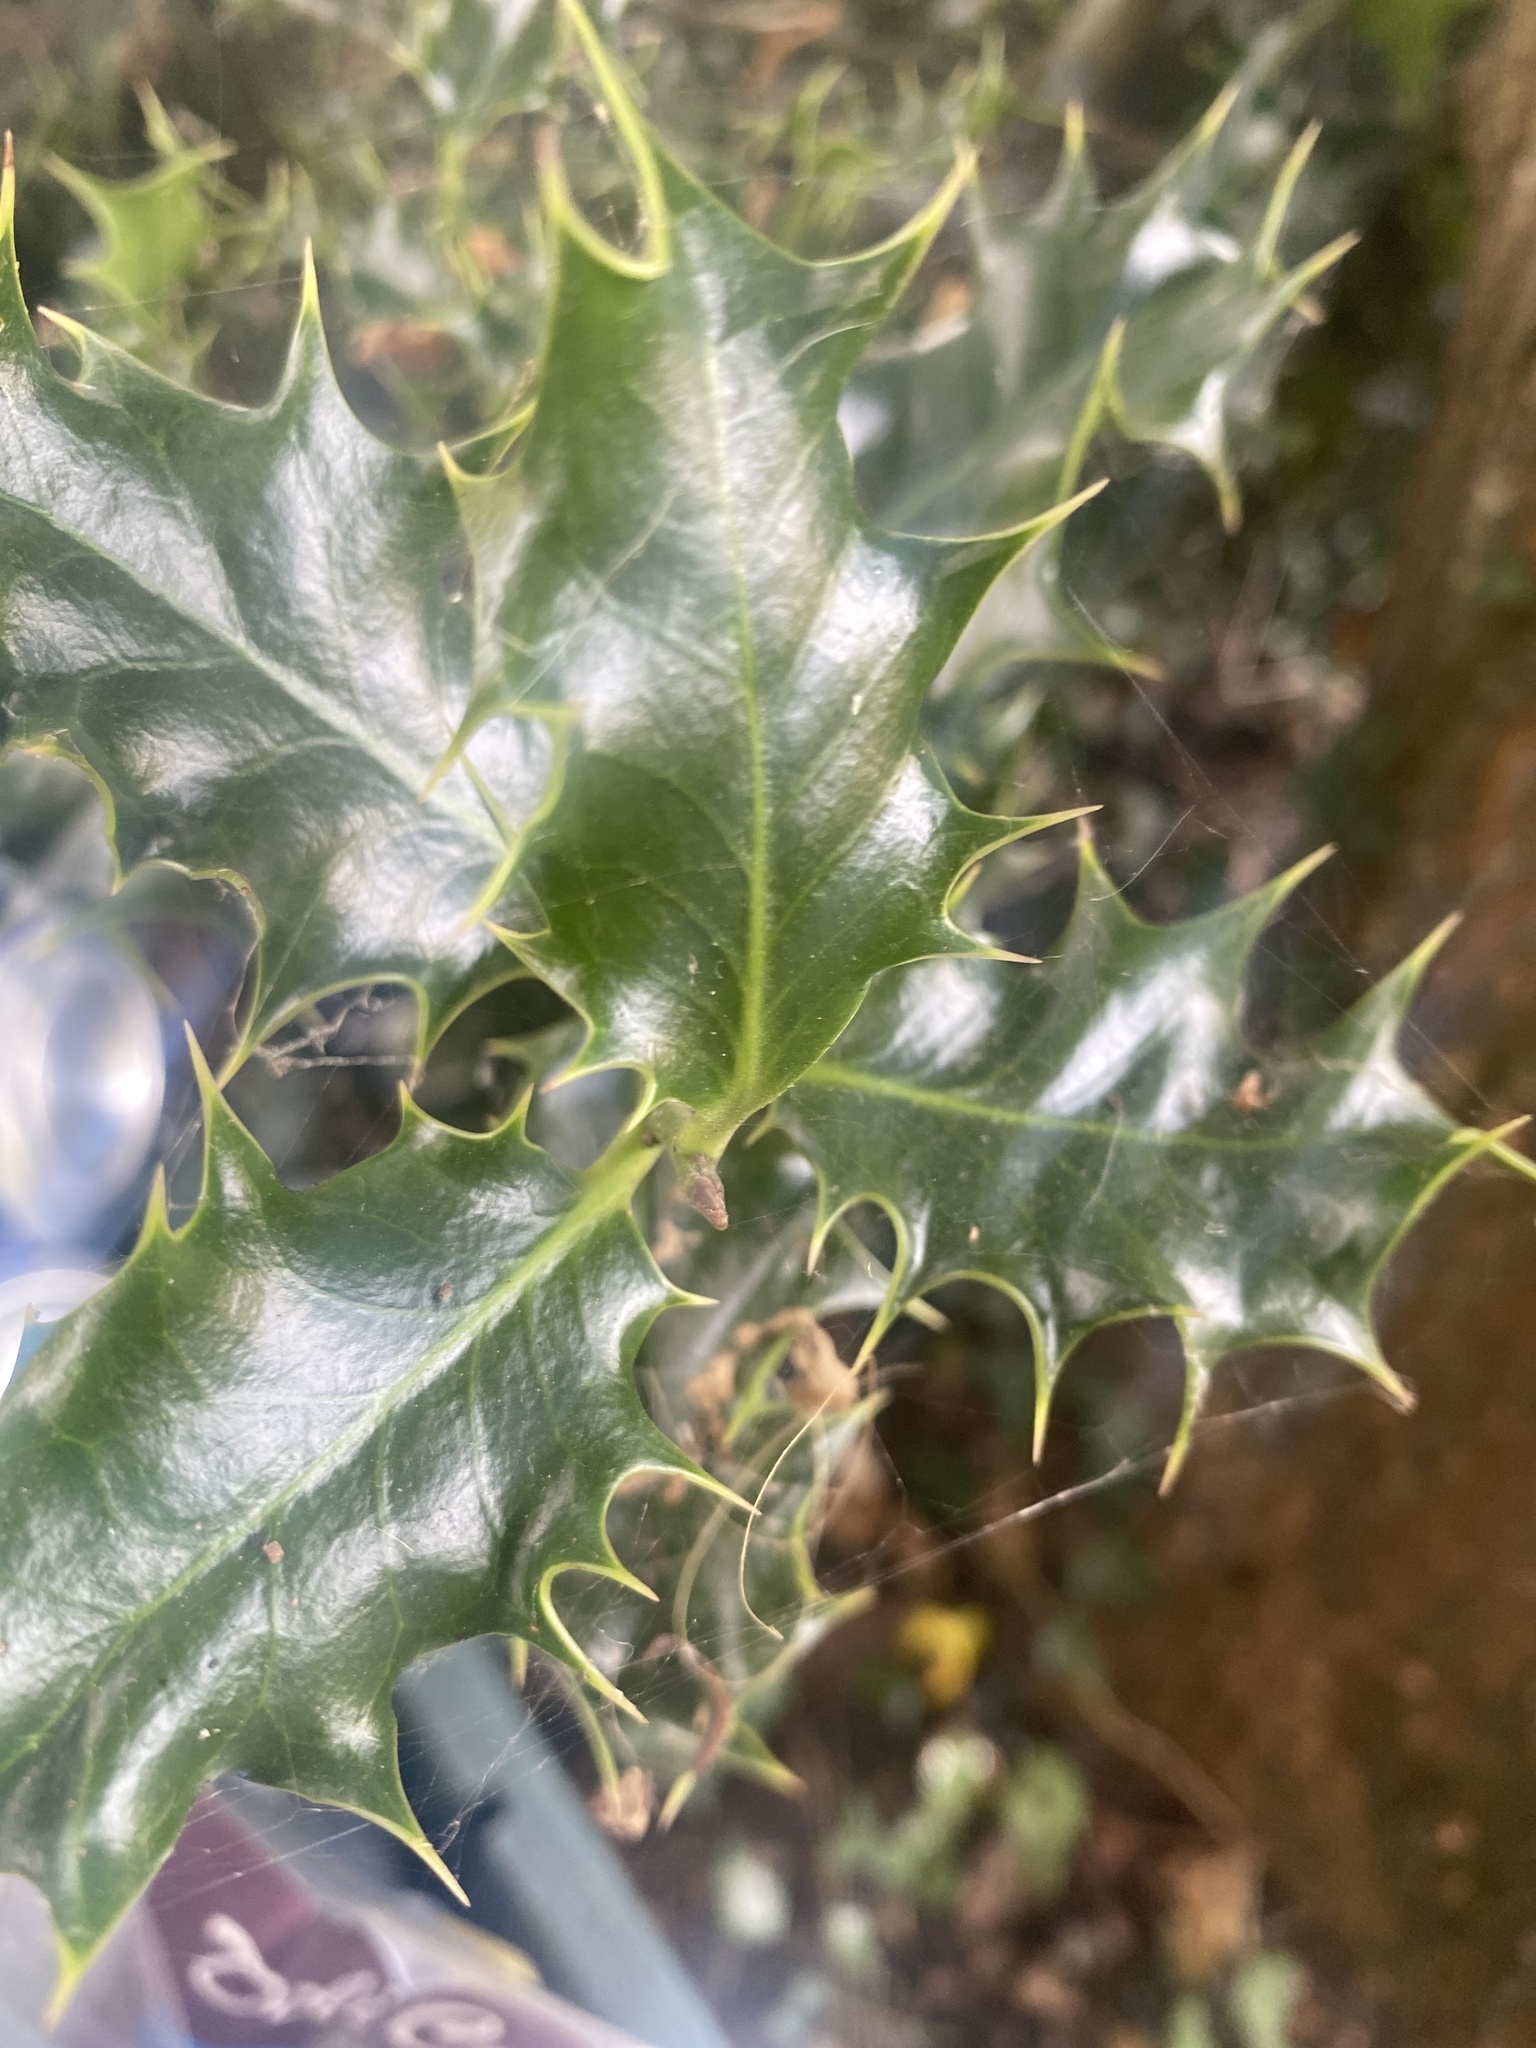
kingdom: Plantae
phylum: Tracheophyta
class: Magnoliopsida
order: Aquifoliales
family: Aquifoliaceae
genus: Ilex
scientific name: Ilex aquifolium
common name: English holly
